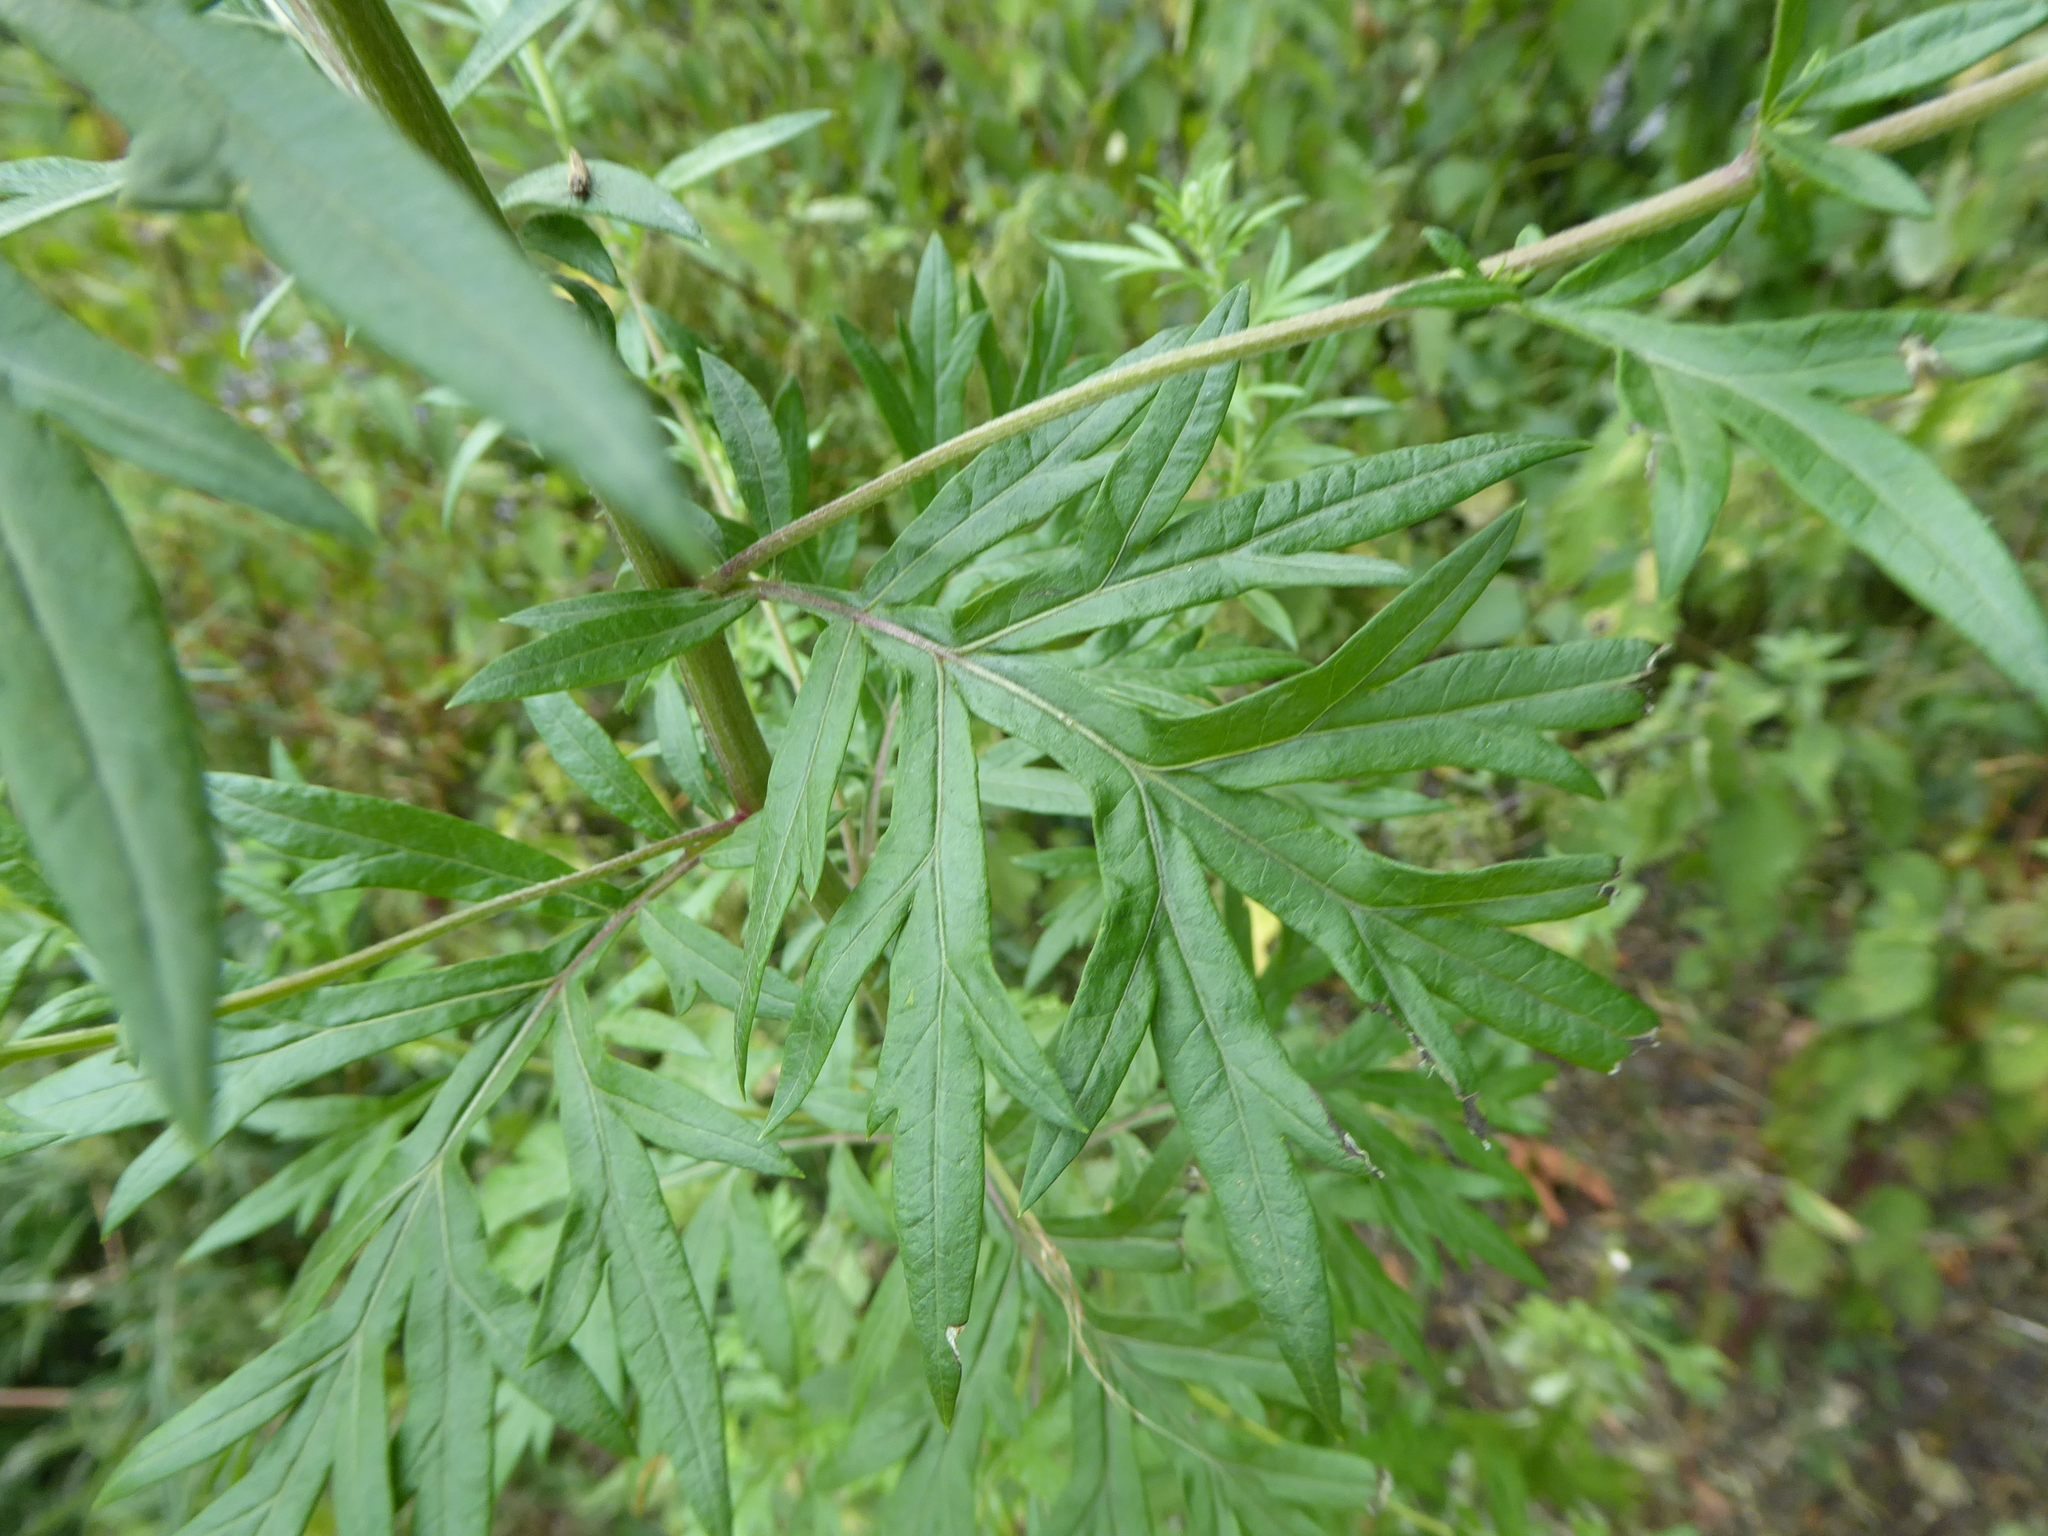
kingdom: Plantae
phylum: Tracheophyta
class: Magnoliopsida
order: Asterales
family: Asteraceae
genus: Artemisia
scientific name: Artemisia vulgaris
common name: Mugwort
